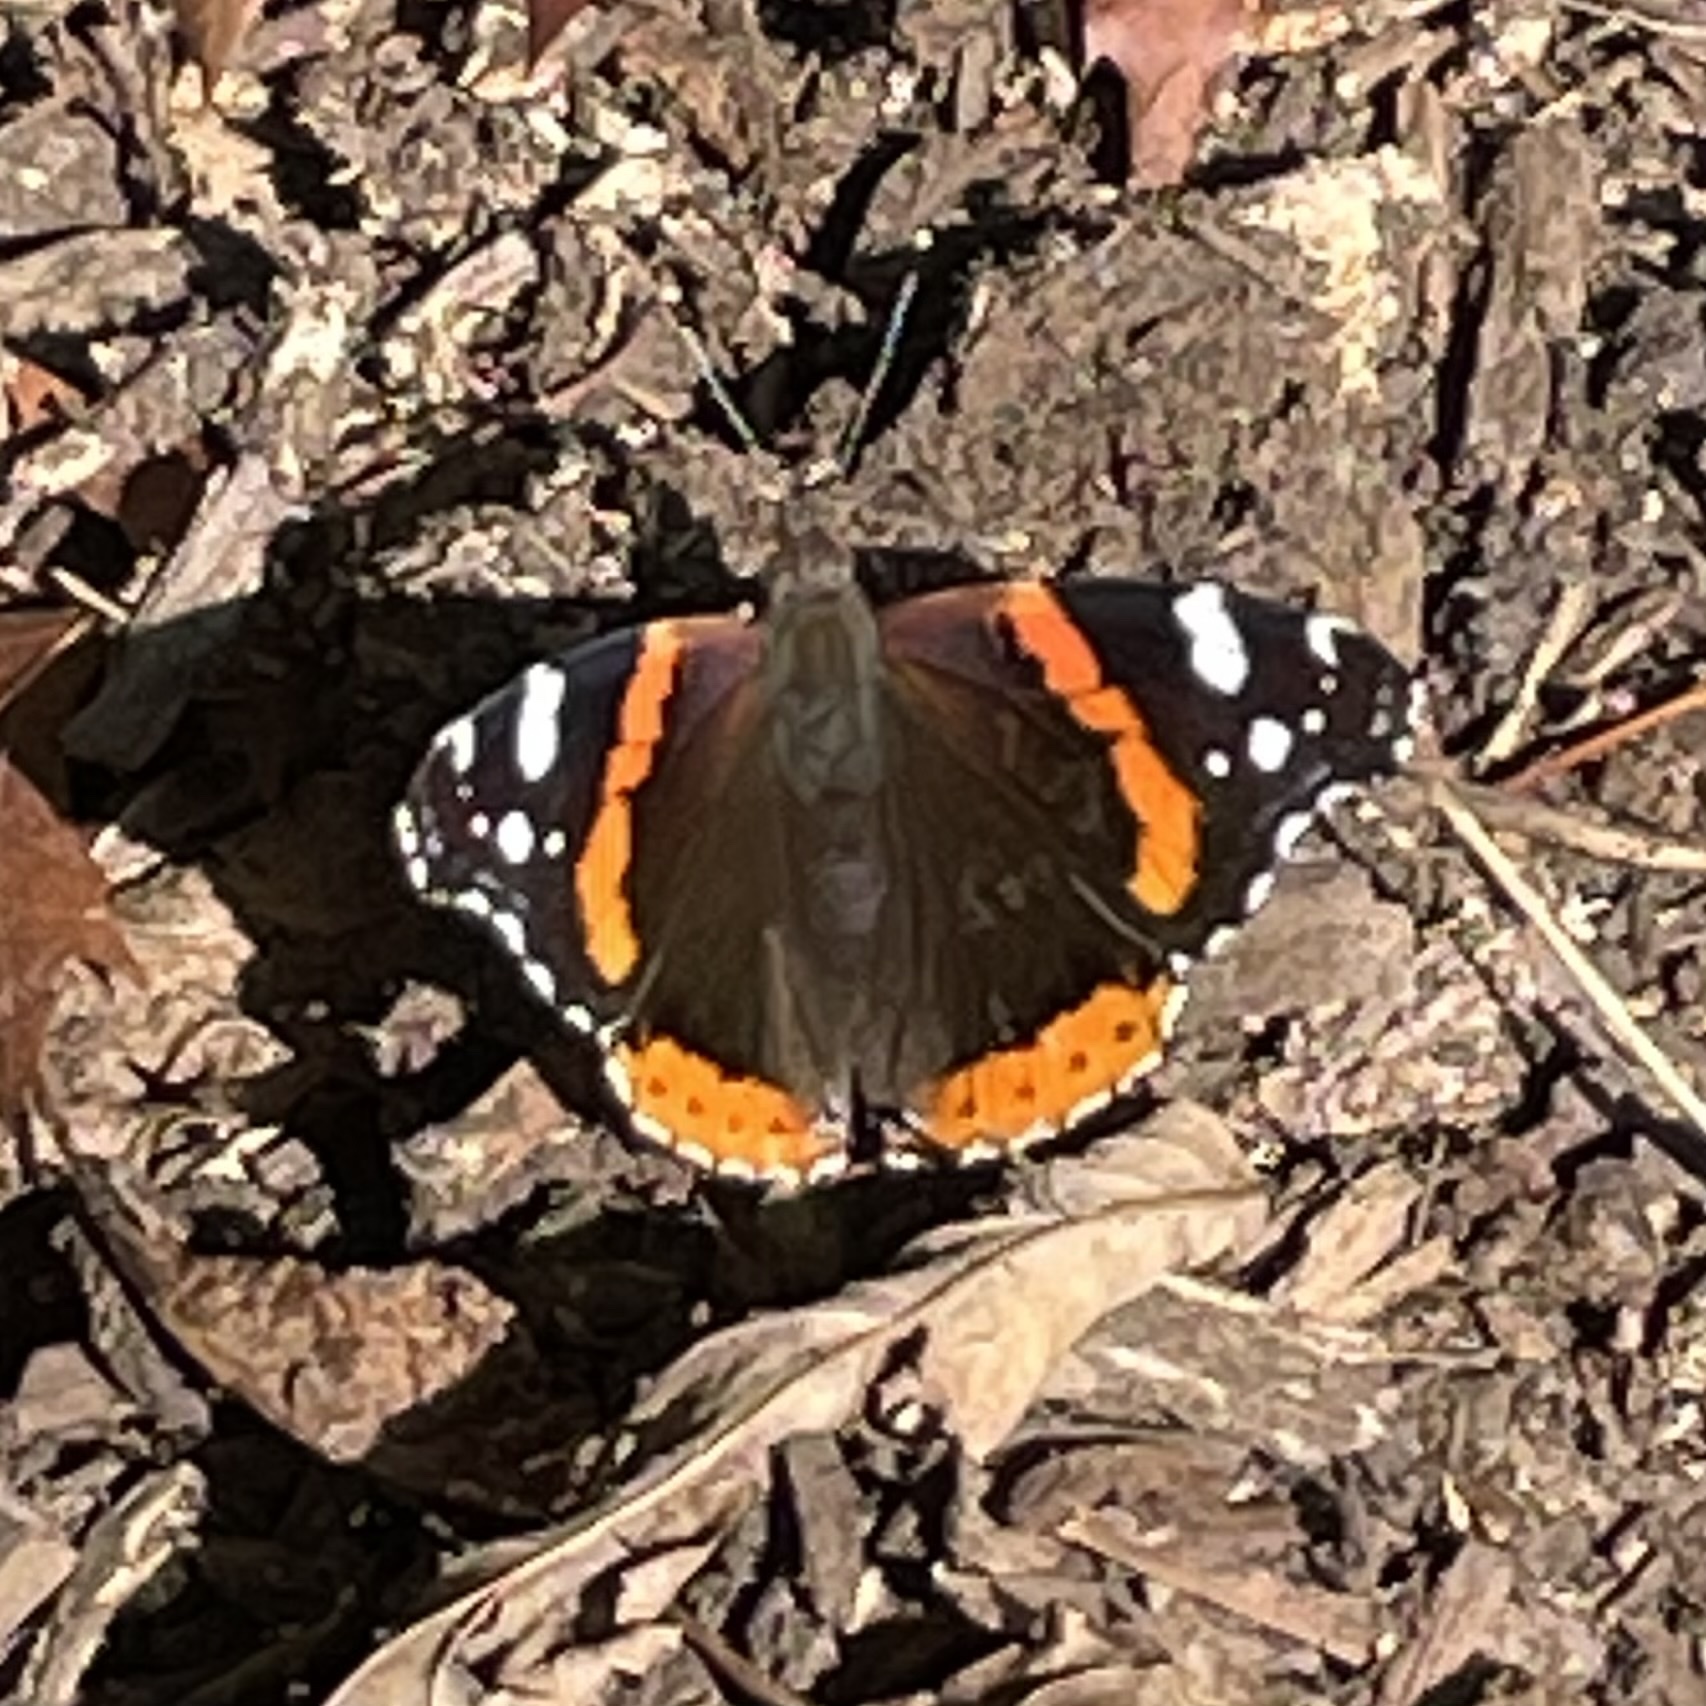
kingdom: Animalia
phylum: Arthropoda
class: Insecta
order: Lepidoptera
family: Nymphalidae
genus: Vanessa
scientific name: Vanessa atalanta
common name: Red admiral
